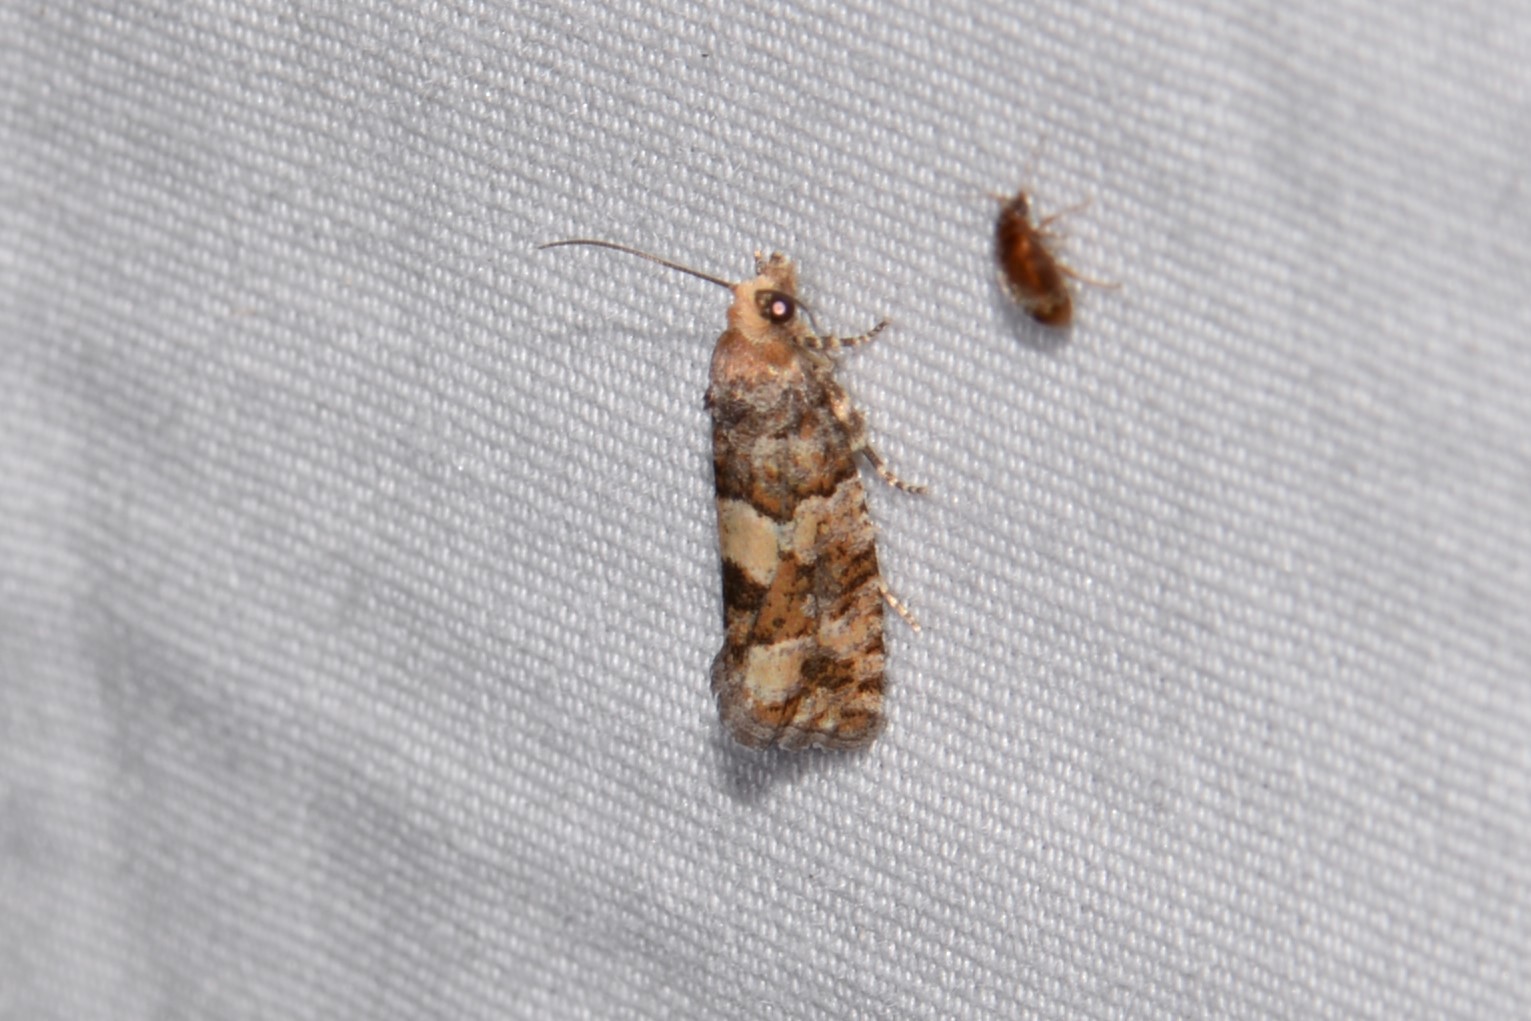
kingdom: Animalia
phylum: Arthropoda
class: Insecta
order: Lepidoptera
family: Tortricidae
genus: Eucopina
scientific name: Eucopina tocullionana
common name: White pinecone borer moth
